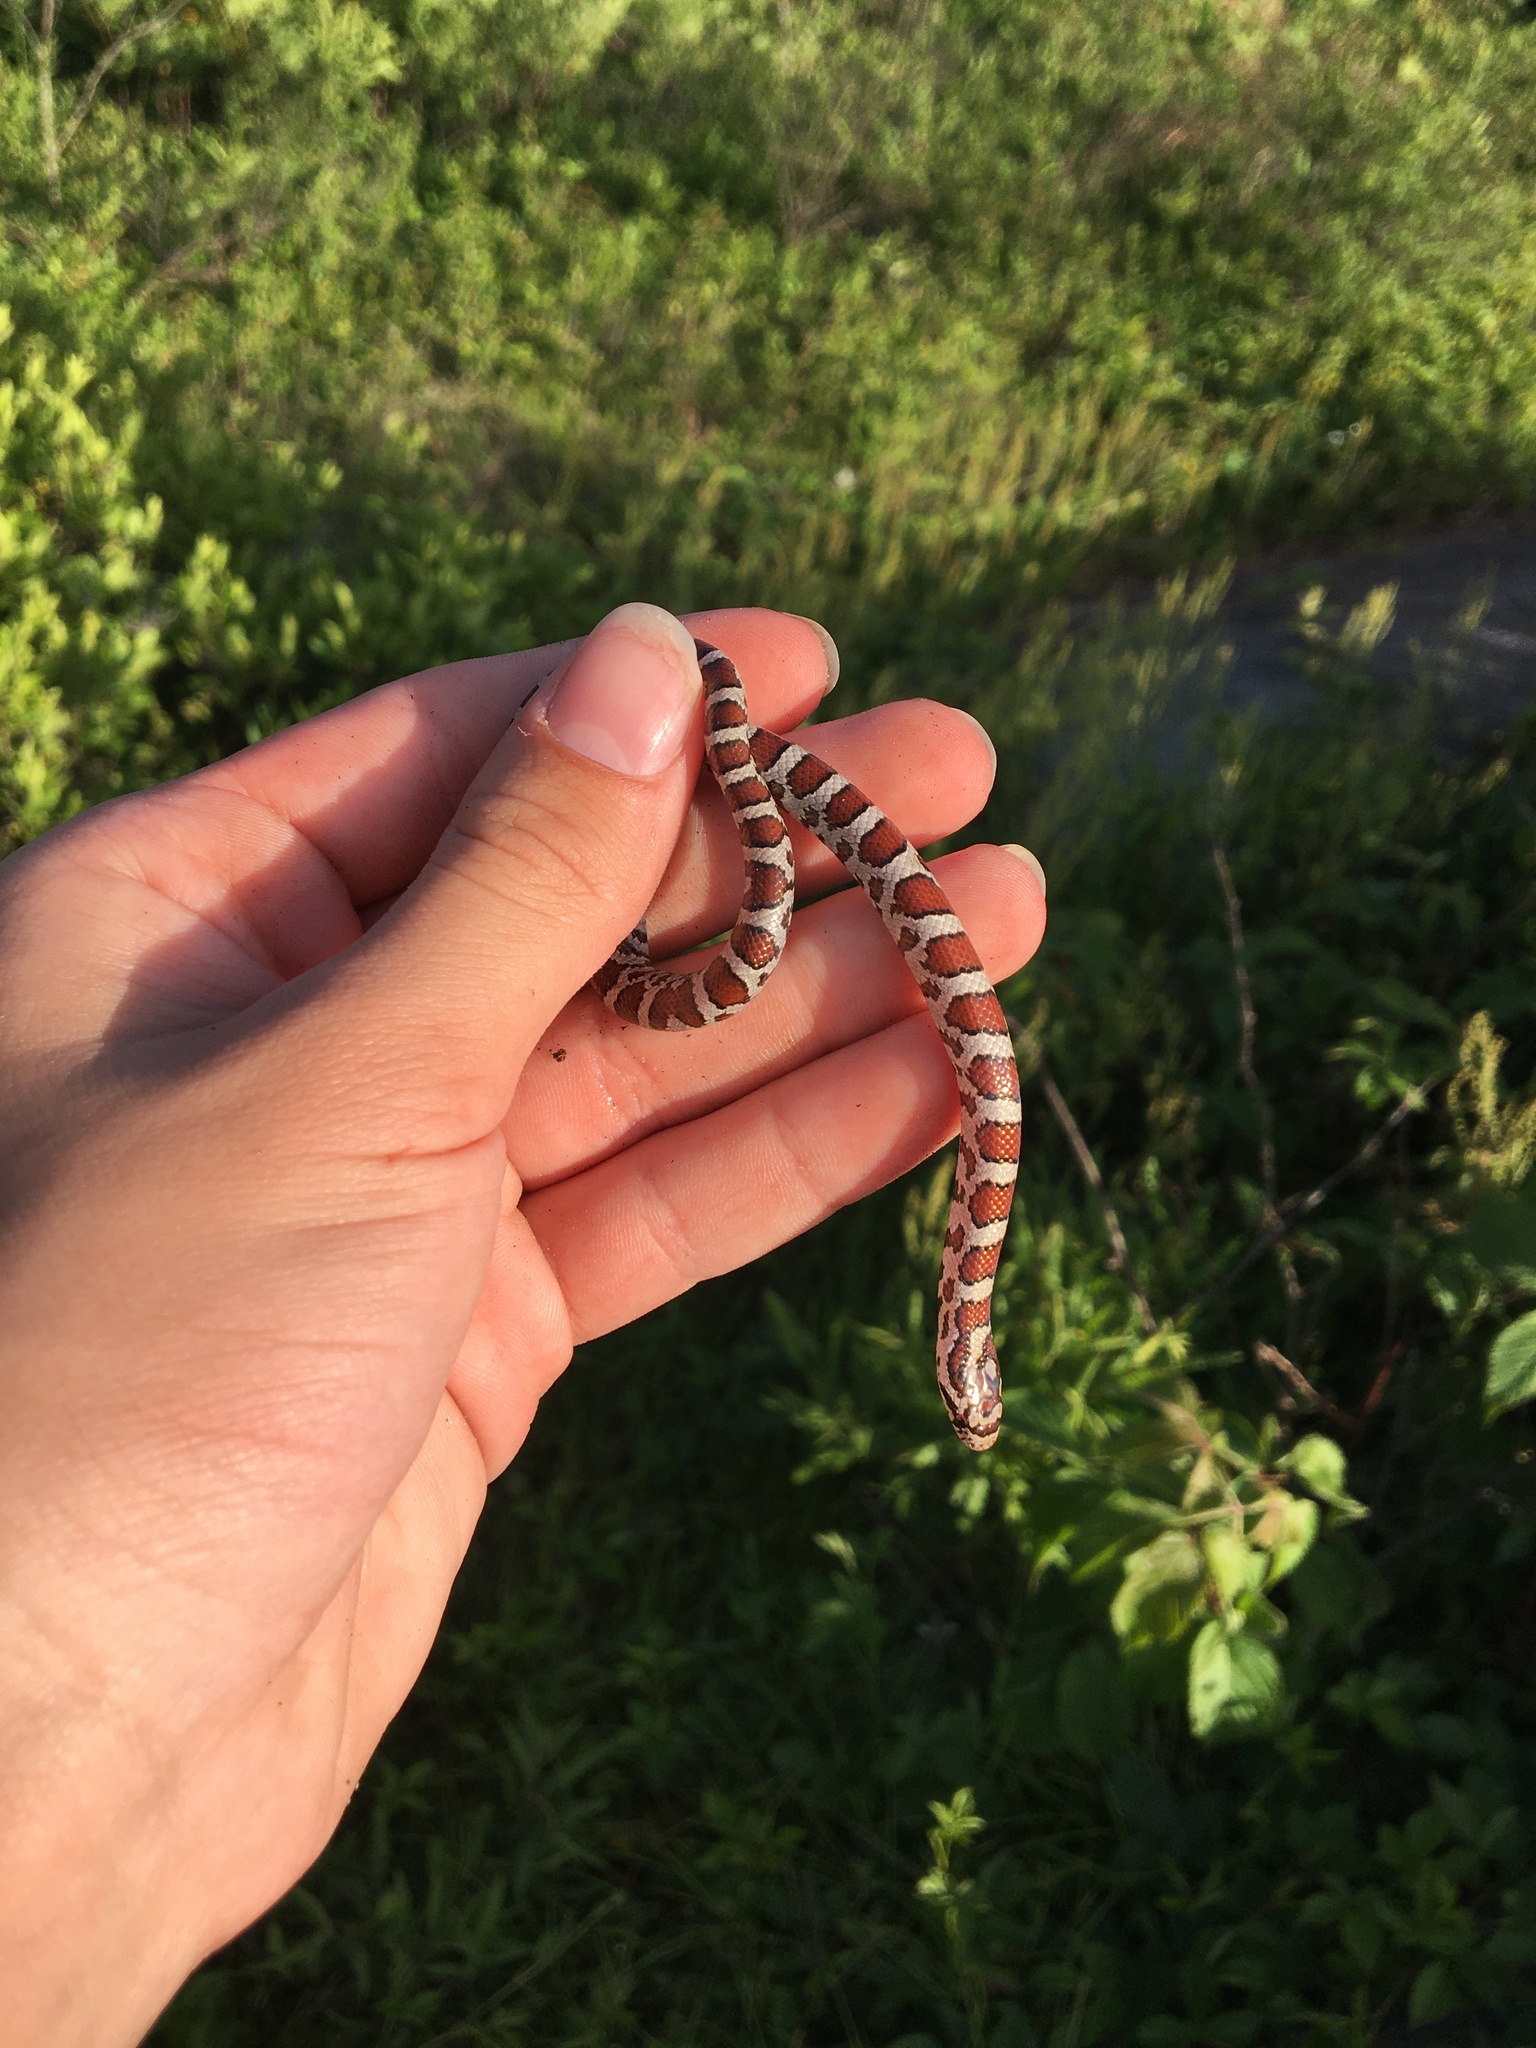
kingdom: Animalia
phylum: Chordata
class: Squamata
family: Colubridae
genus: Lampropeltis
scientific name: Lampropeltis triangulum
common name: Eastern milksnake
